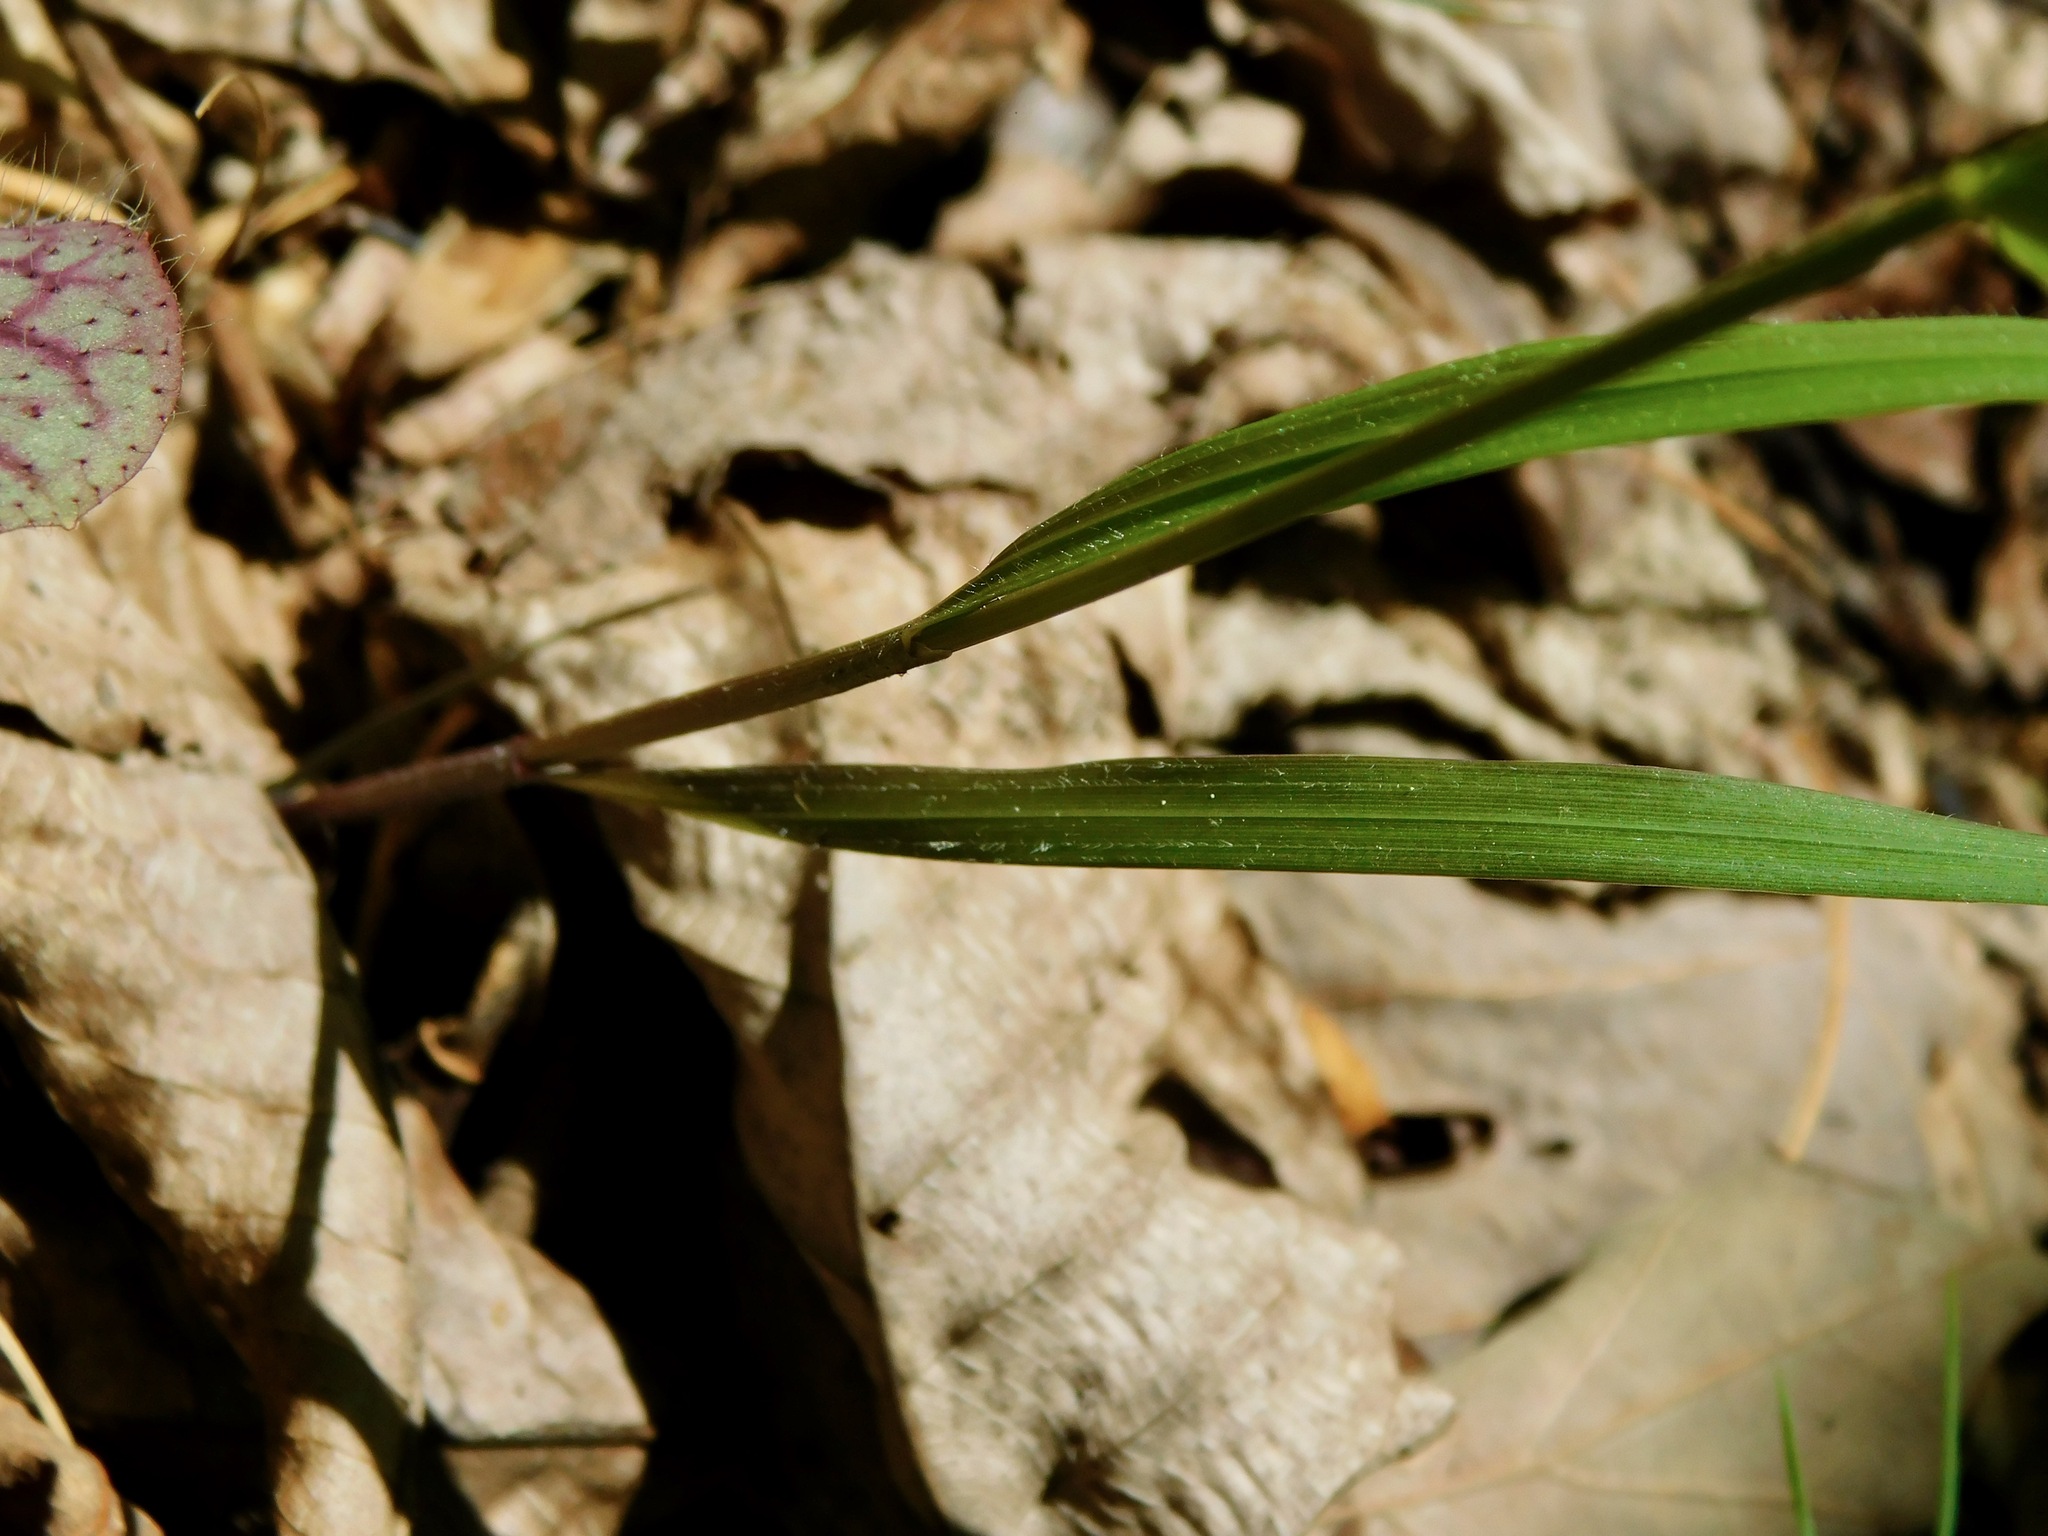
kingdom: Plantae
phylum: Tracheophyta
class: Liliopsida
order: Poales
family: Poaceae
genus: Melica
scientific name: Melica mutica
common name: Two-flower melic
